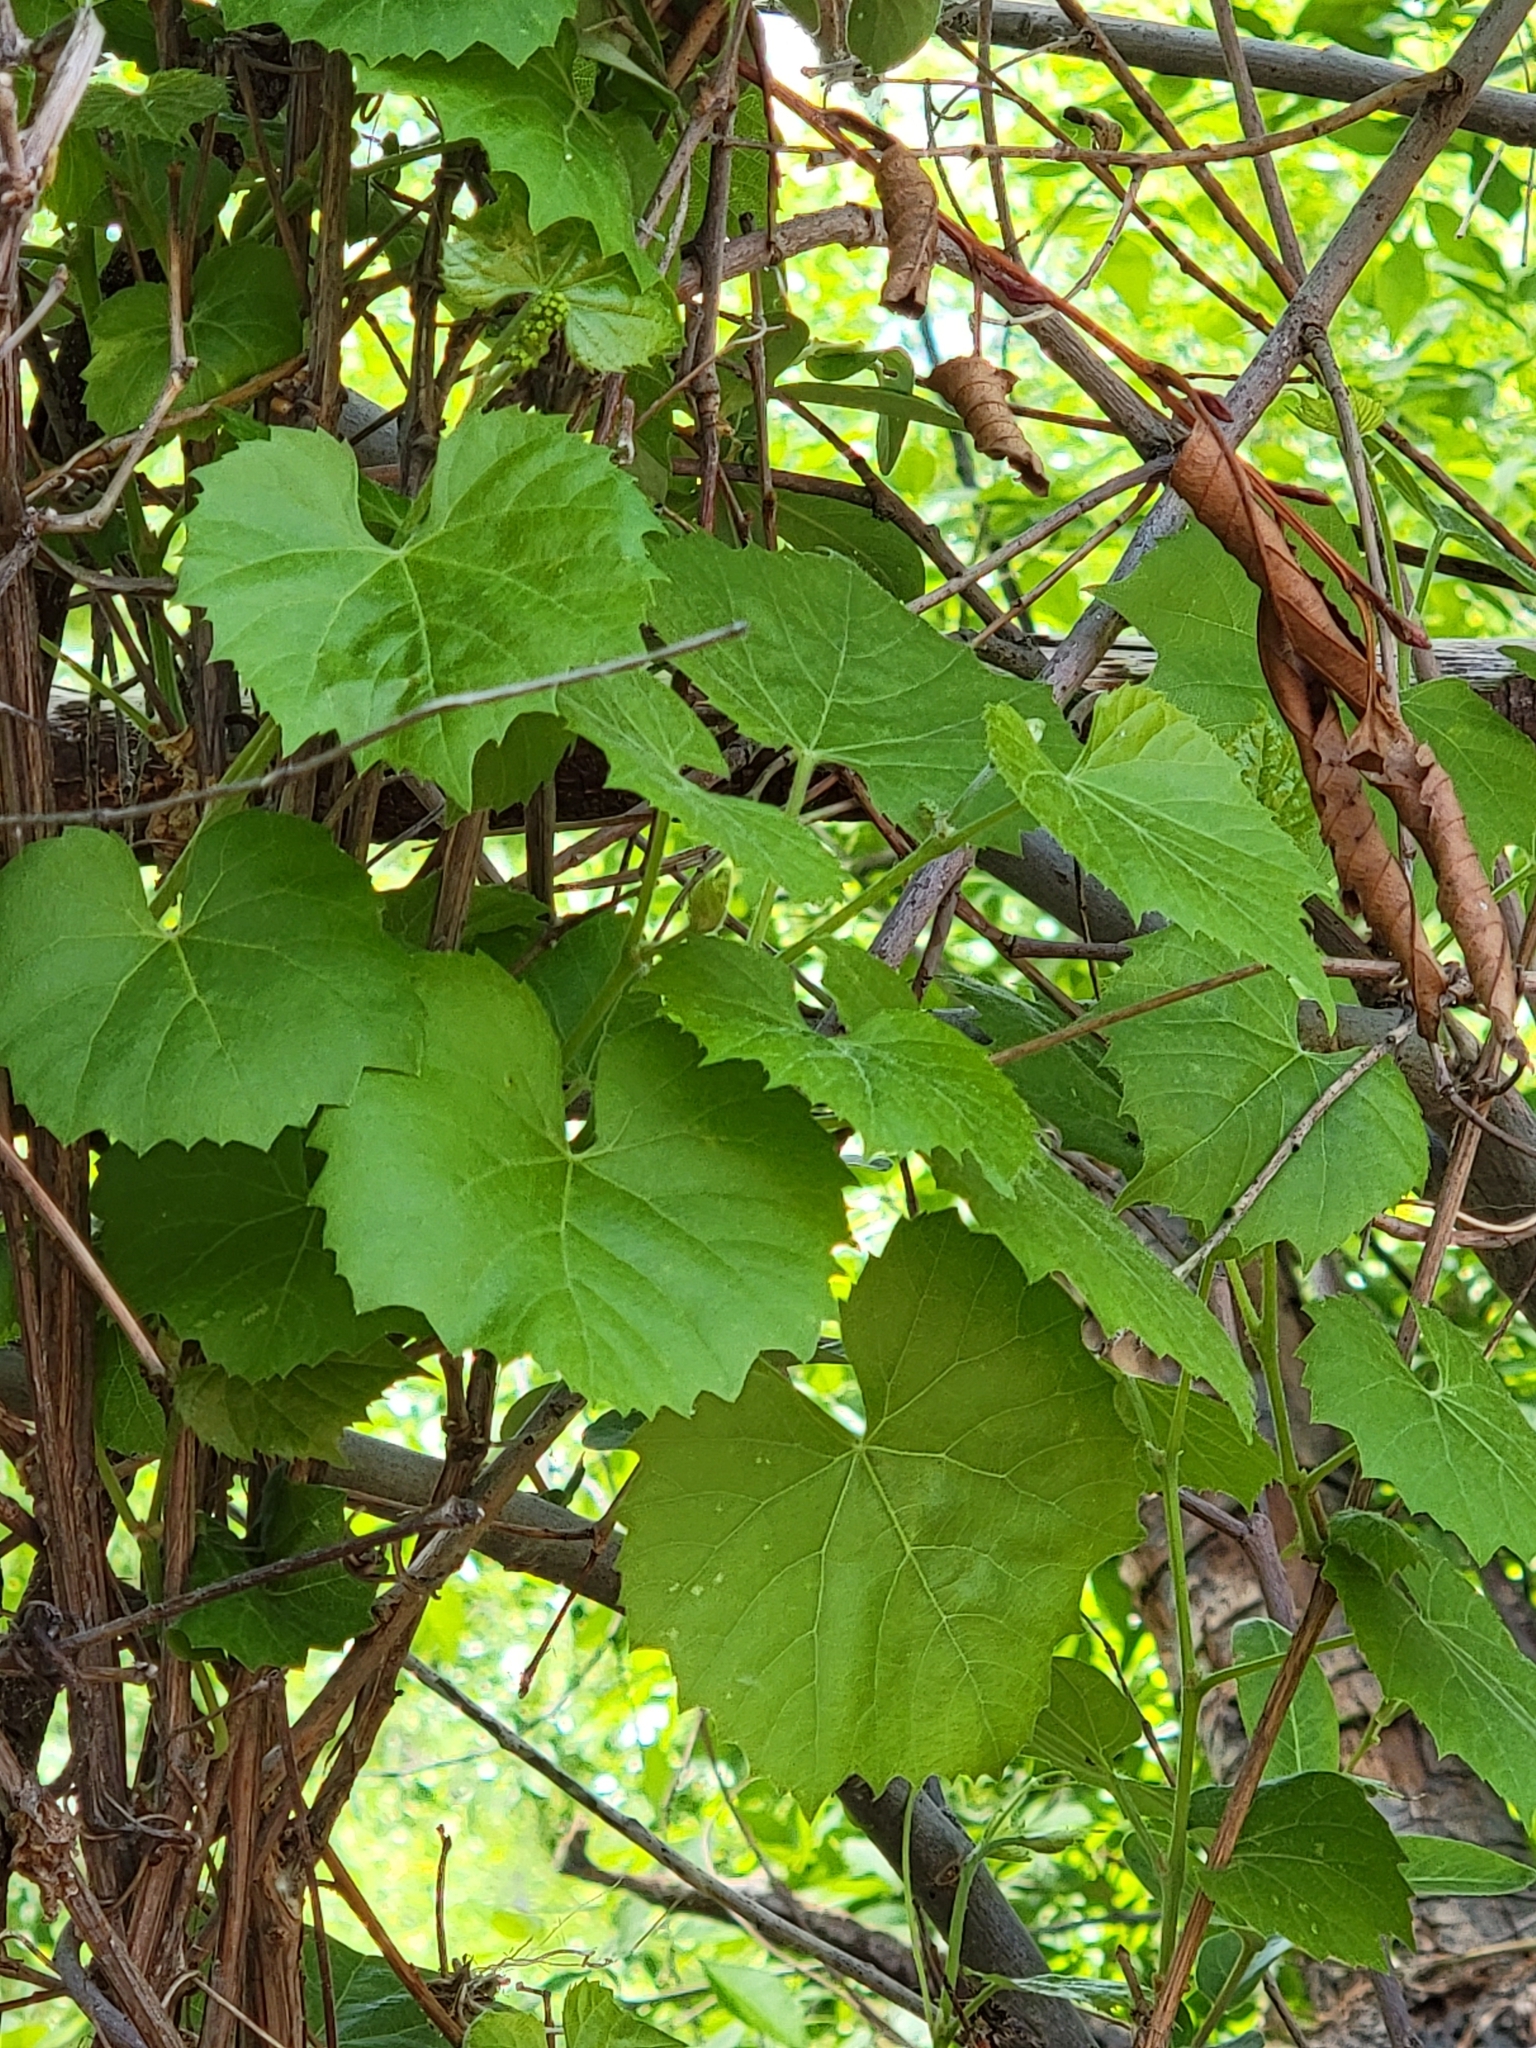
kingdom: Plantae
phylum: Tracheophyta
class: Magnoliopsida
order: Vitales
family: Vitaceae
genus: Vitis
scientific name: Vitis arizonica
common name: Canyon grape
